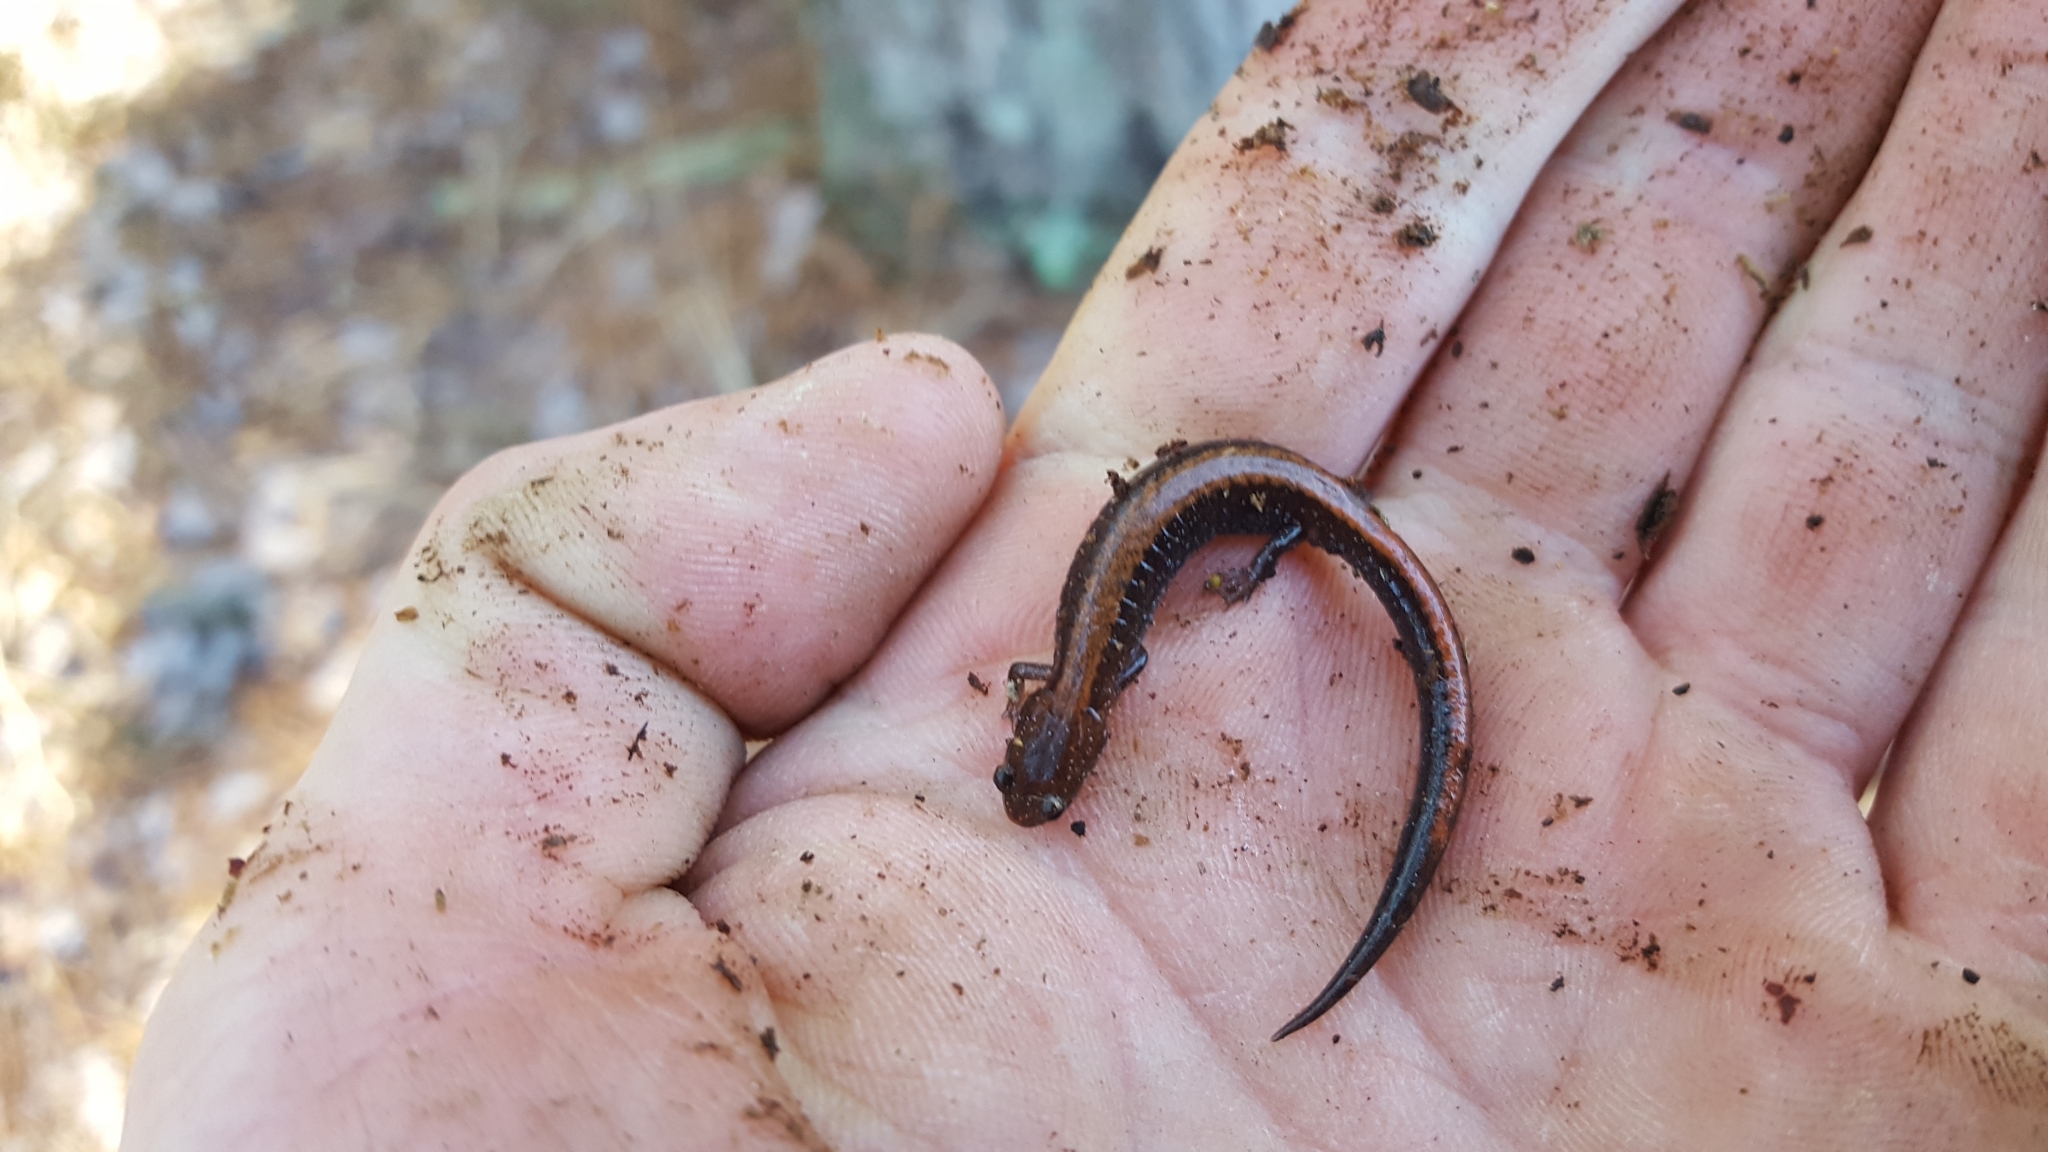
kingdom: Animalia
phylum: Chordata
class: Amphibia
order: Caudata
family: Plethodontidae
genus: Plethodon
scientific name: Plethodon serratus
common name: Southern red-backed salamander
